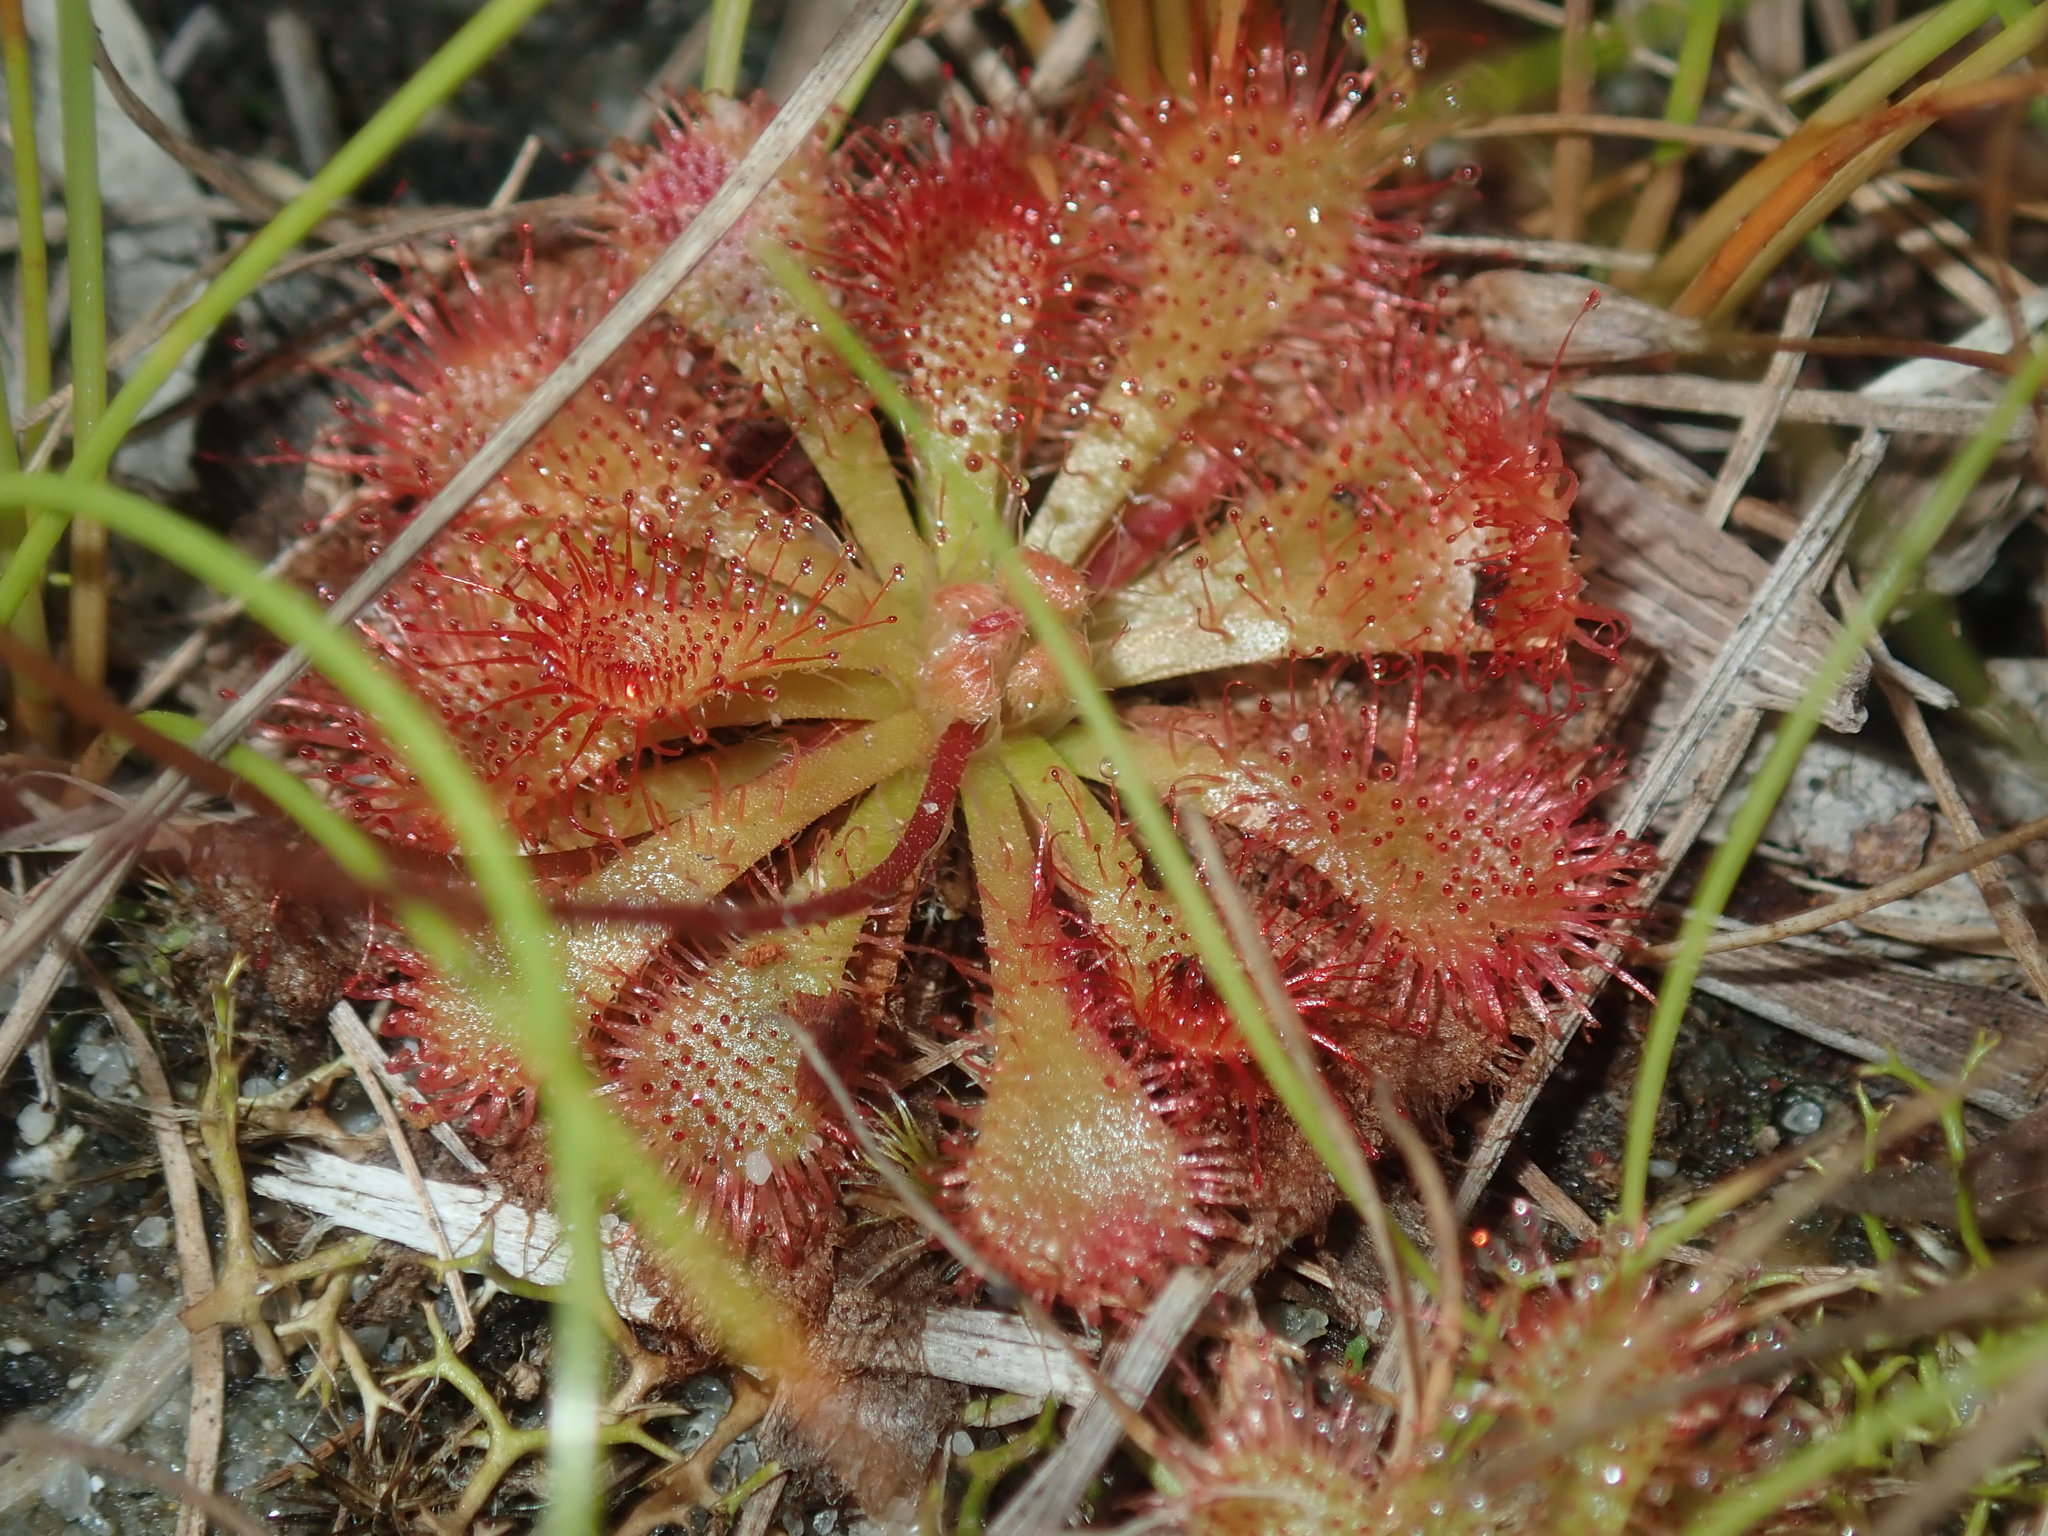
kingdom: Plantae
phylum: Tracheophyta
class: Magnoliopsida
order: Caryophyllales
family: Droseraceae
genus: Drosera
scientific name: Drosera spatulata
